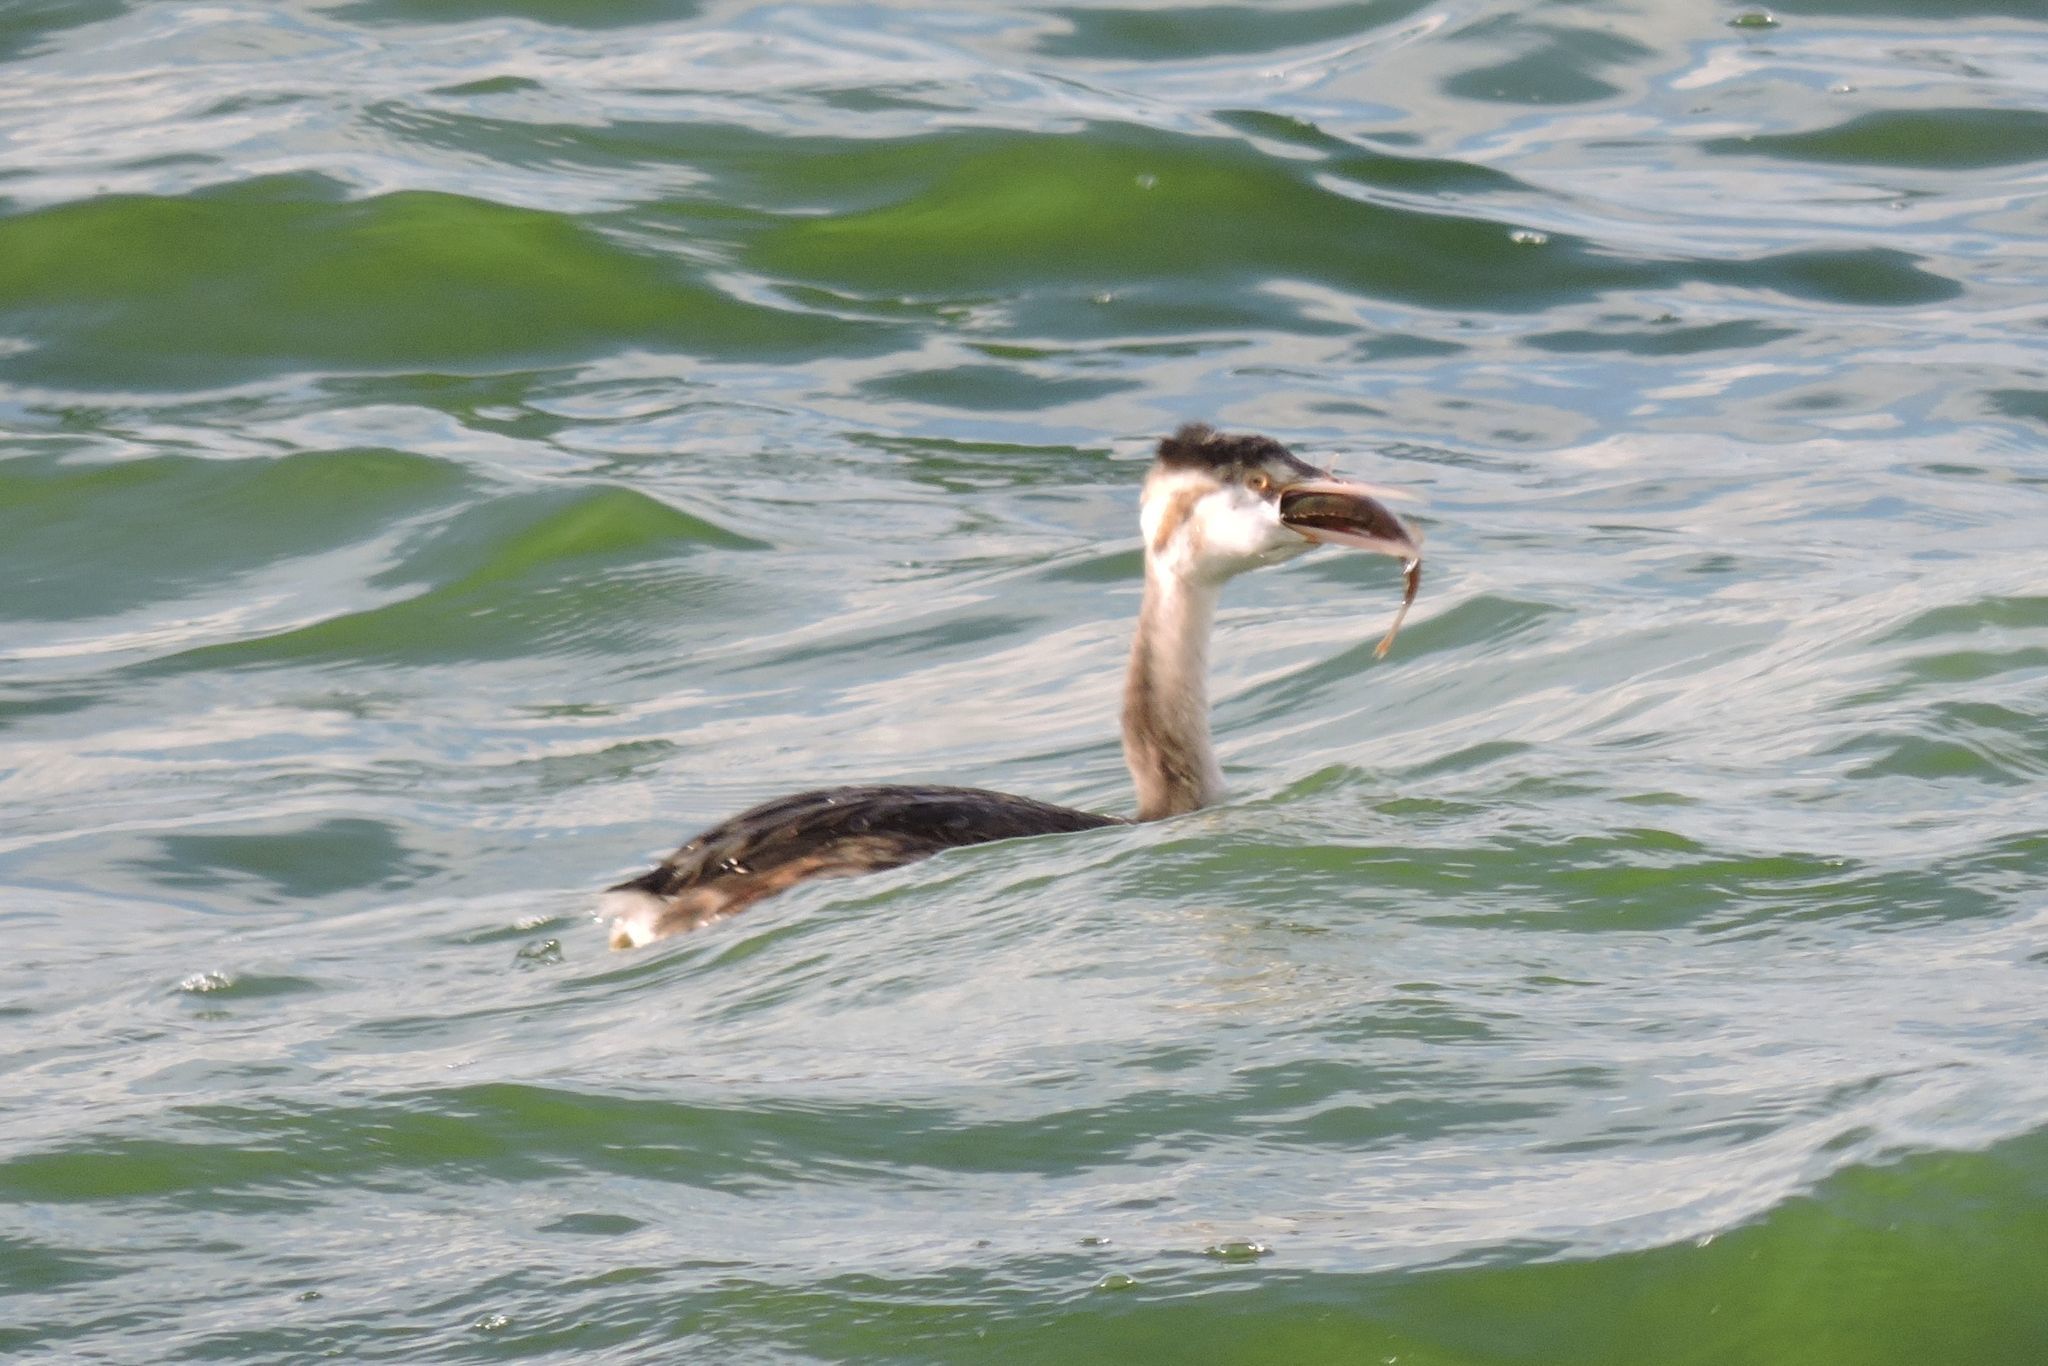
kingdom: Animalia
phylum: Chordata
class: Aves
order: Podicipediformes
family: Podicipedidae
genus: Podiceps
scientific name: Podiceps cristatus
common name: Great crested grebe
